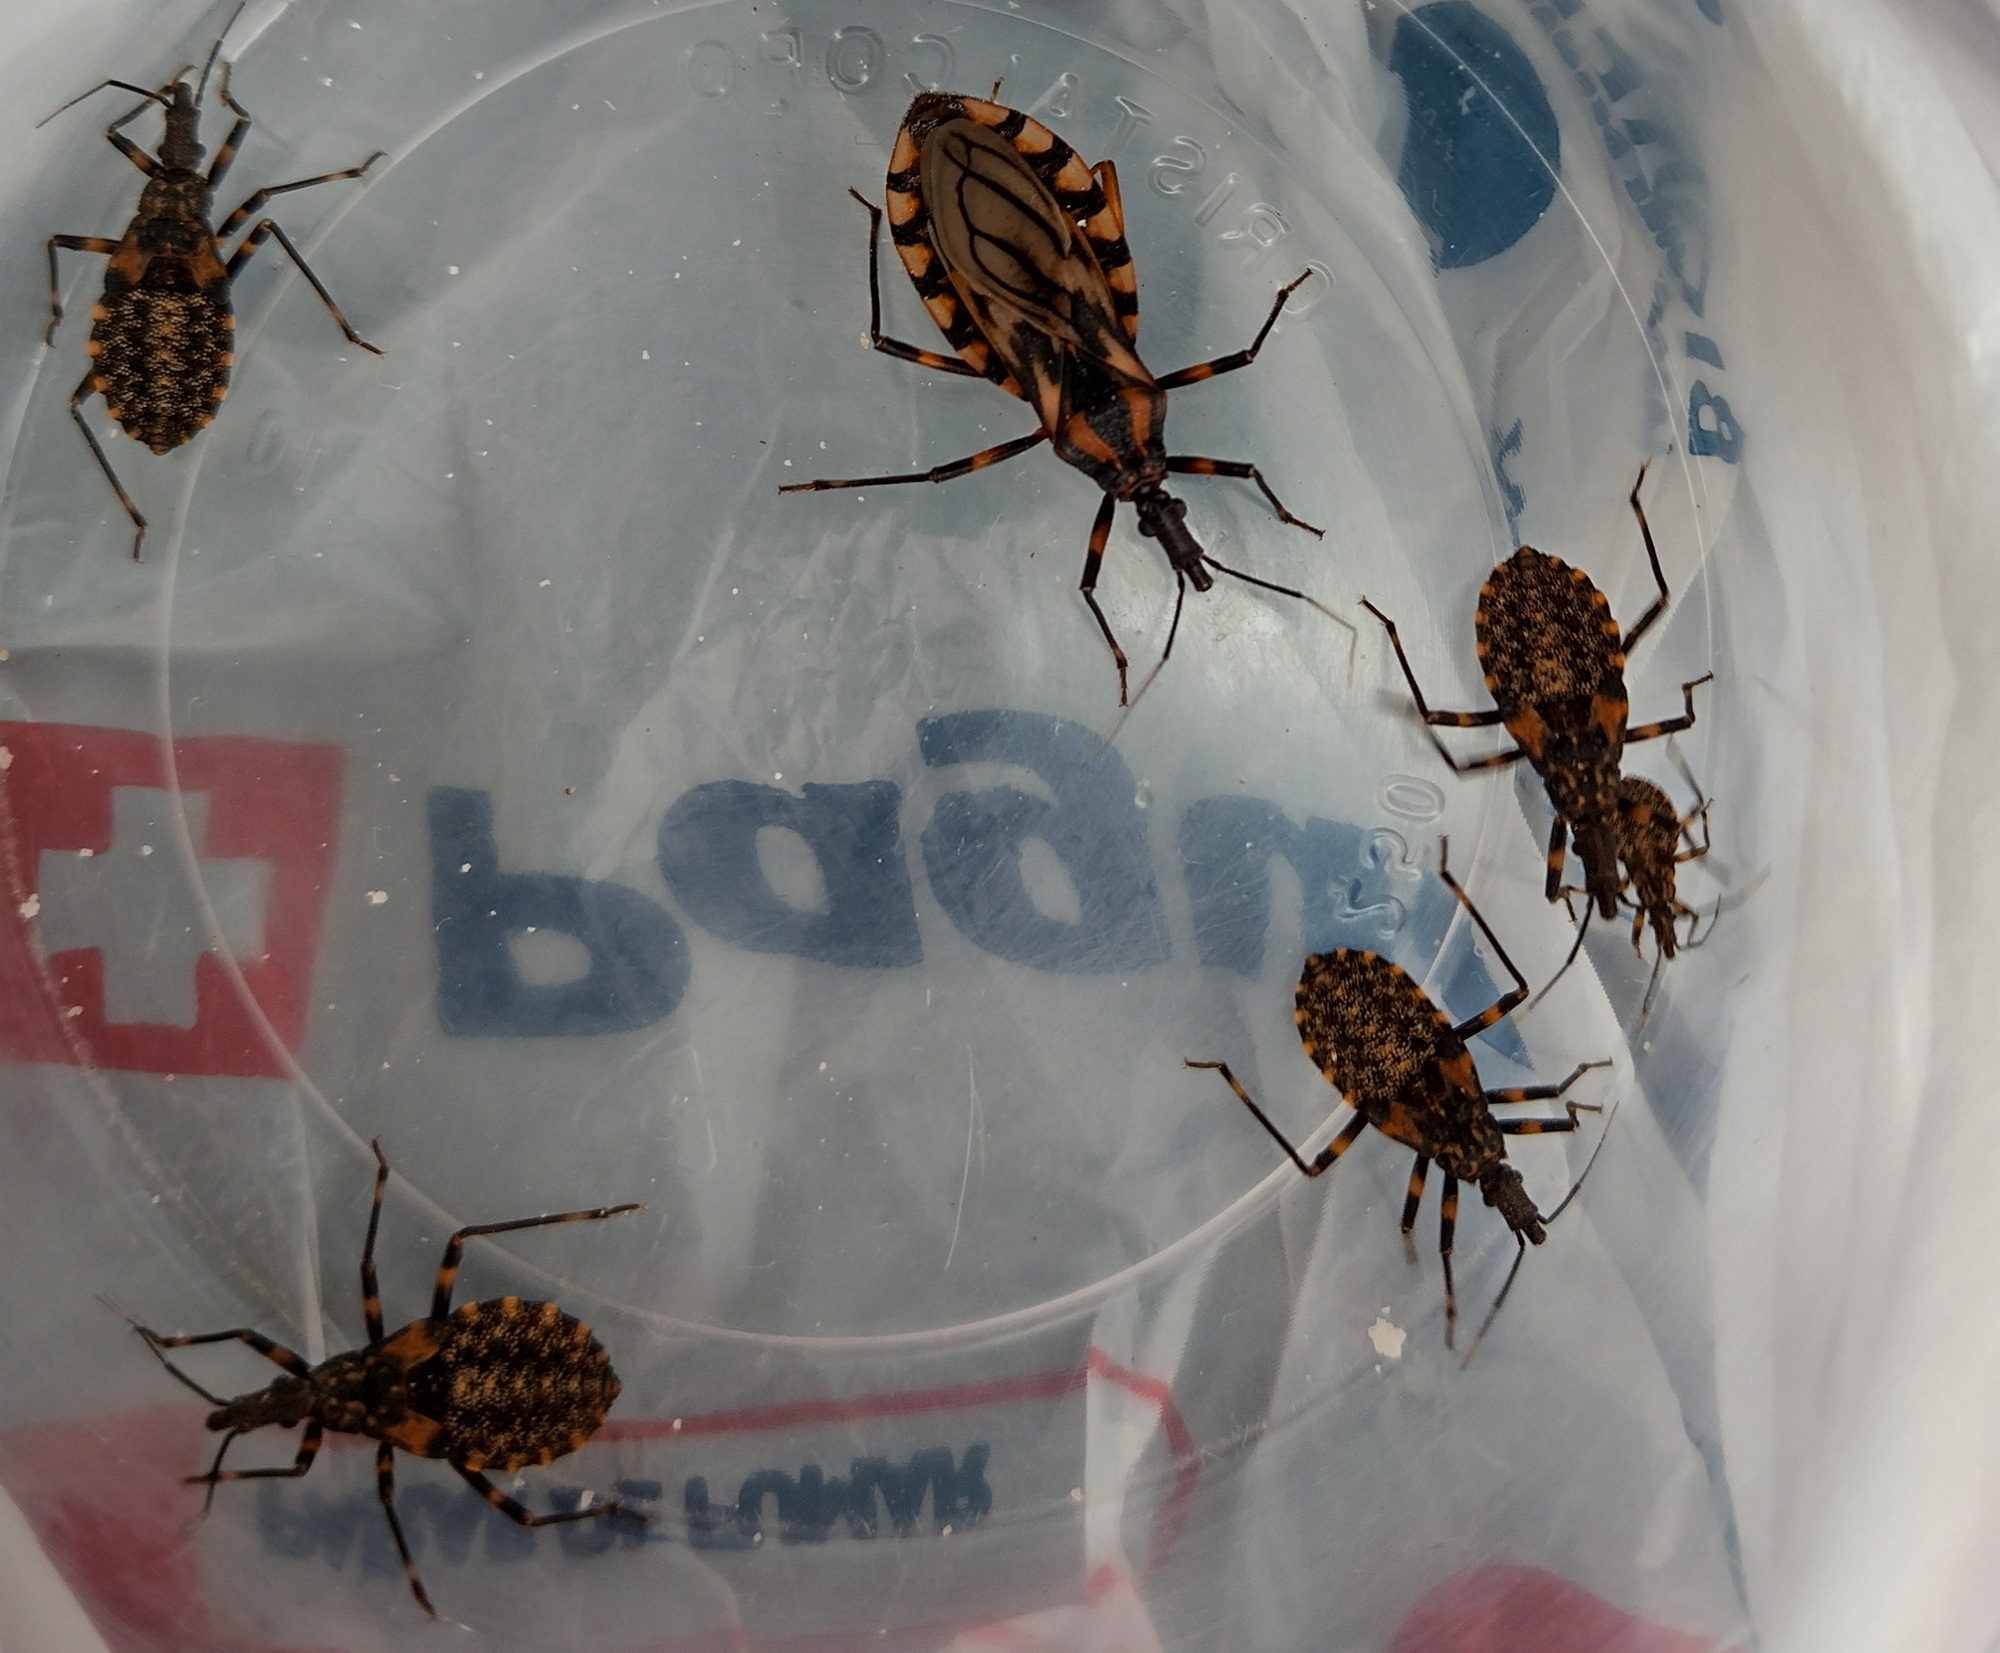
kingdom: Animalia
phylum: Arthropoda
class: Insecta
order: Hemiptera
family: Reduviidae
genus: Triatoma
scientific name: Triatoma brasiliensis
